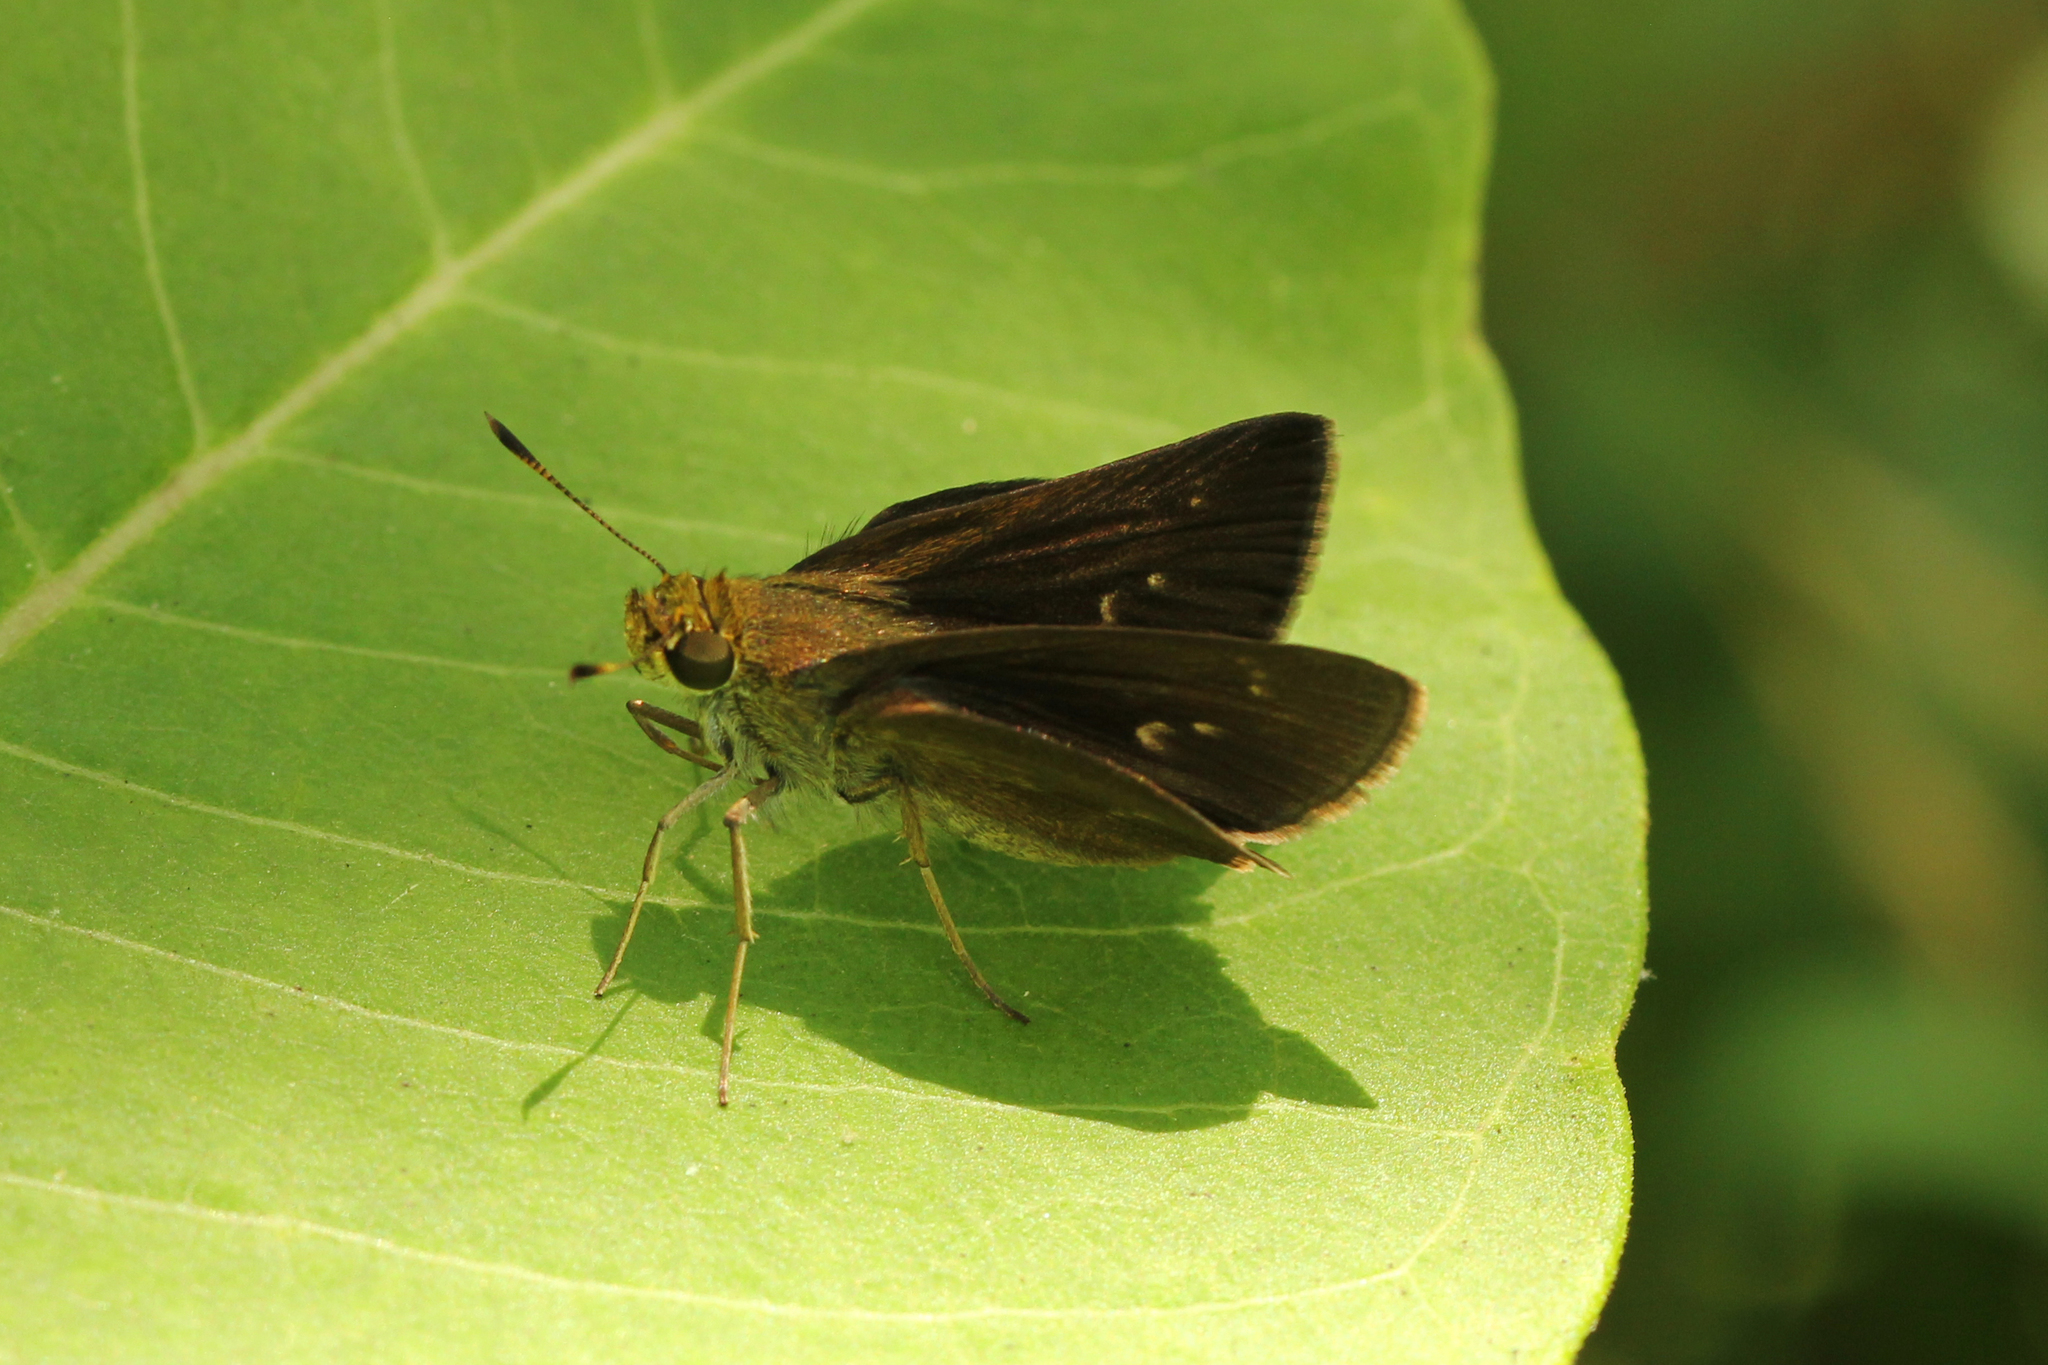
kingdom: Animalia
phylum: Arthropoda
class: Insecta
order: Lepidoptera
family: Hesperiidae
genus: Euphyes
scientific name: Euphyes vestris
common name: Dun skipper
